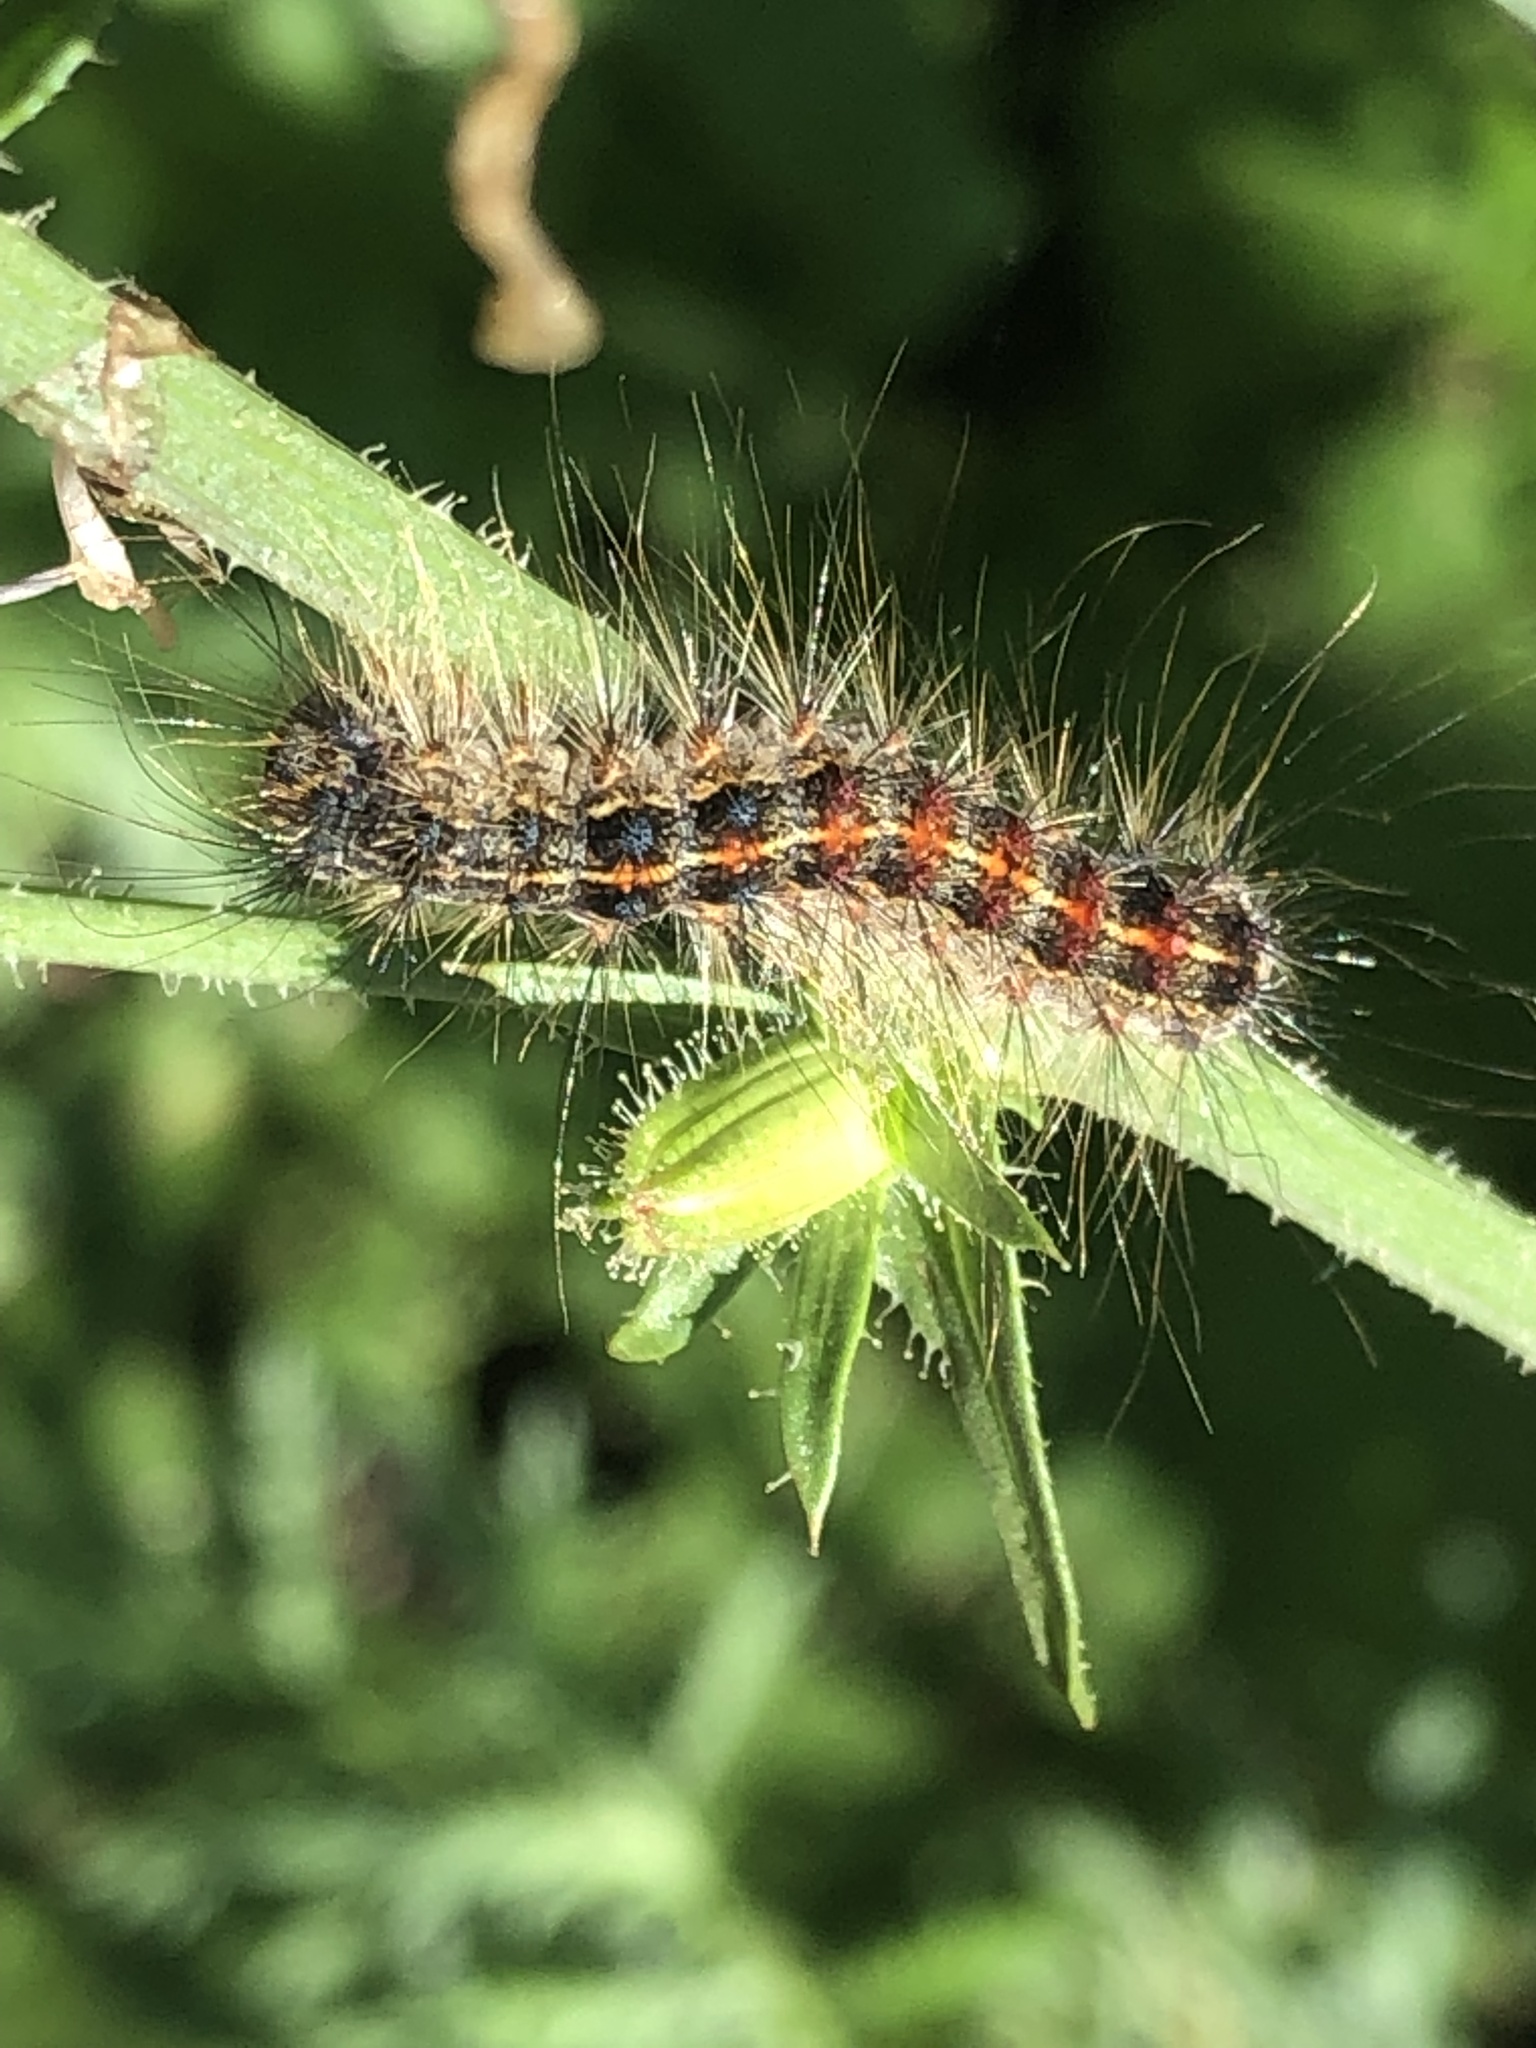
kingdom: Animalia
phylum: Arthropoda
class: Insecta
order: Lepidoptera
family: Erebidae
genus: Lymantria
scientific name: Lymantria dispar
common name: Gypsy moth
